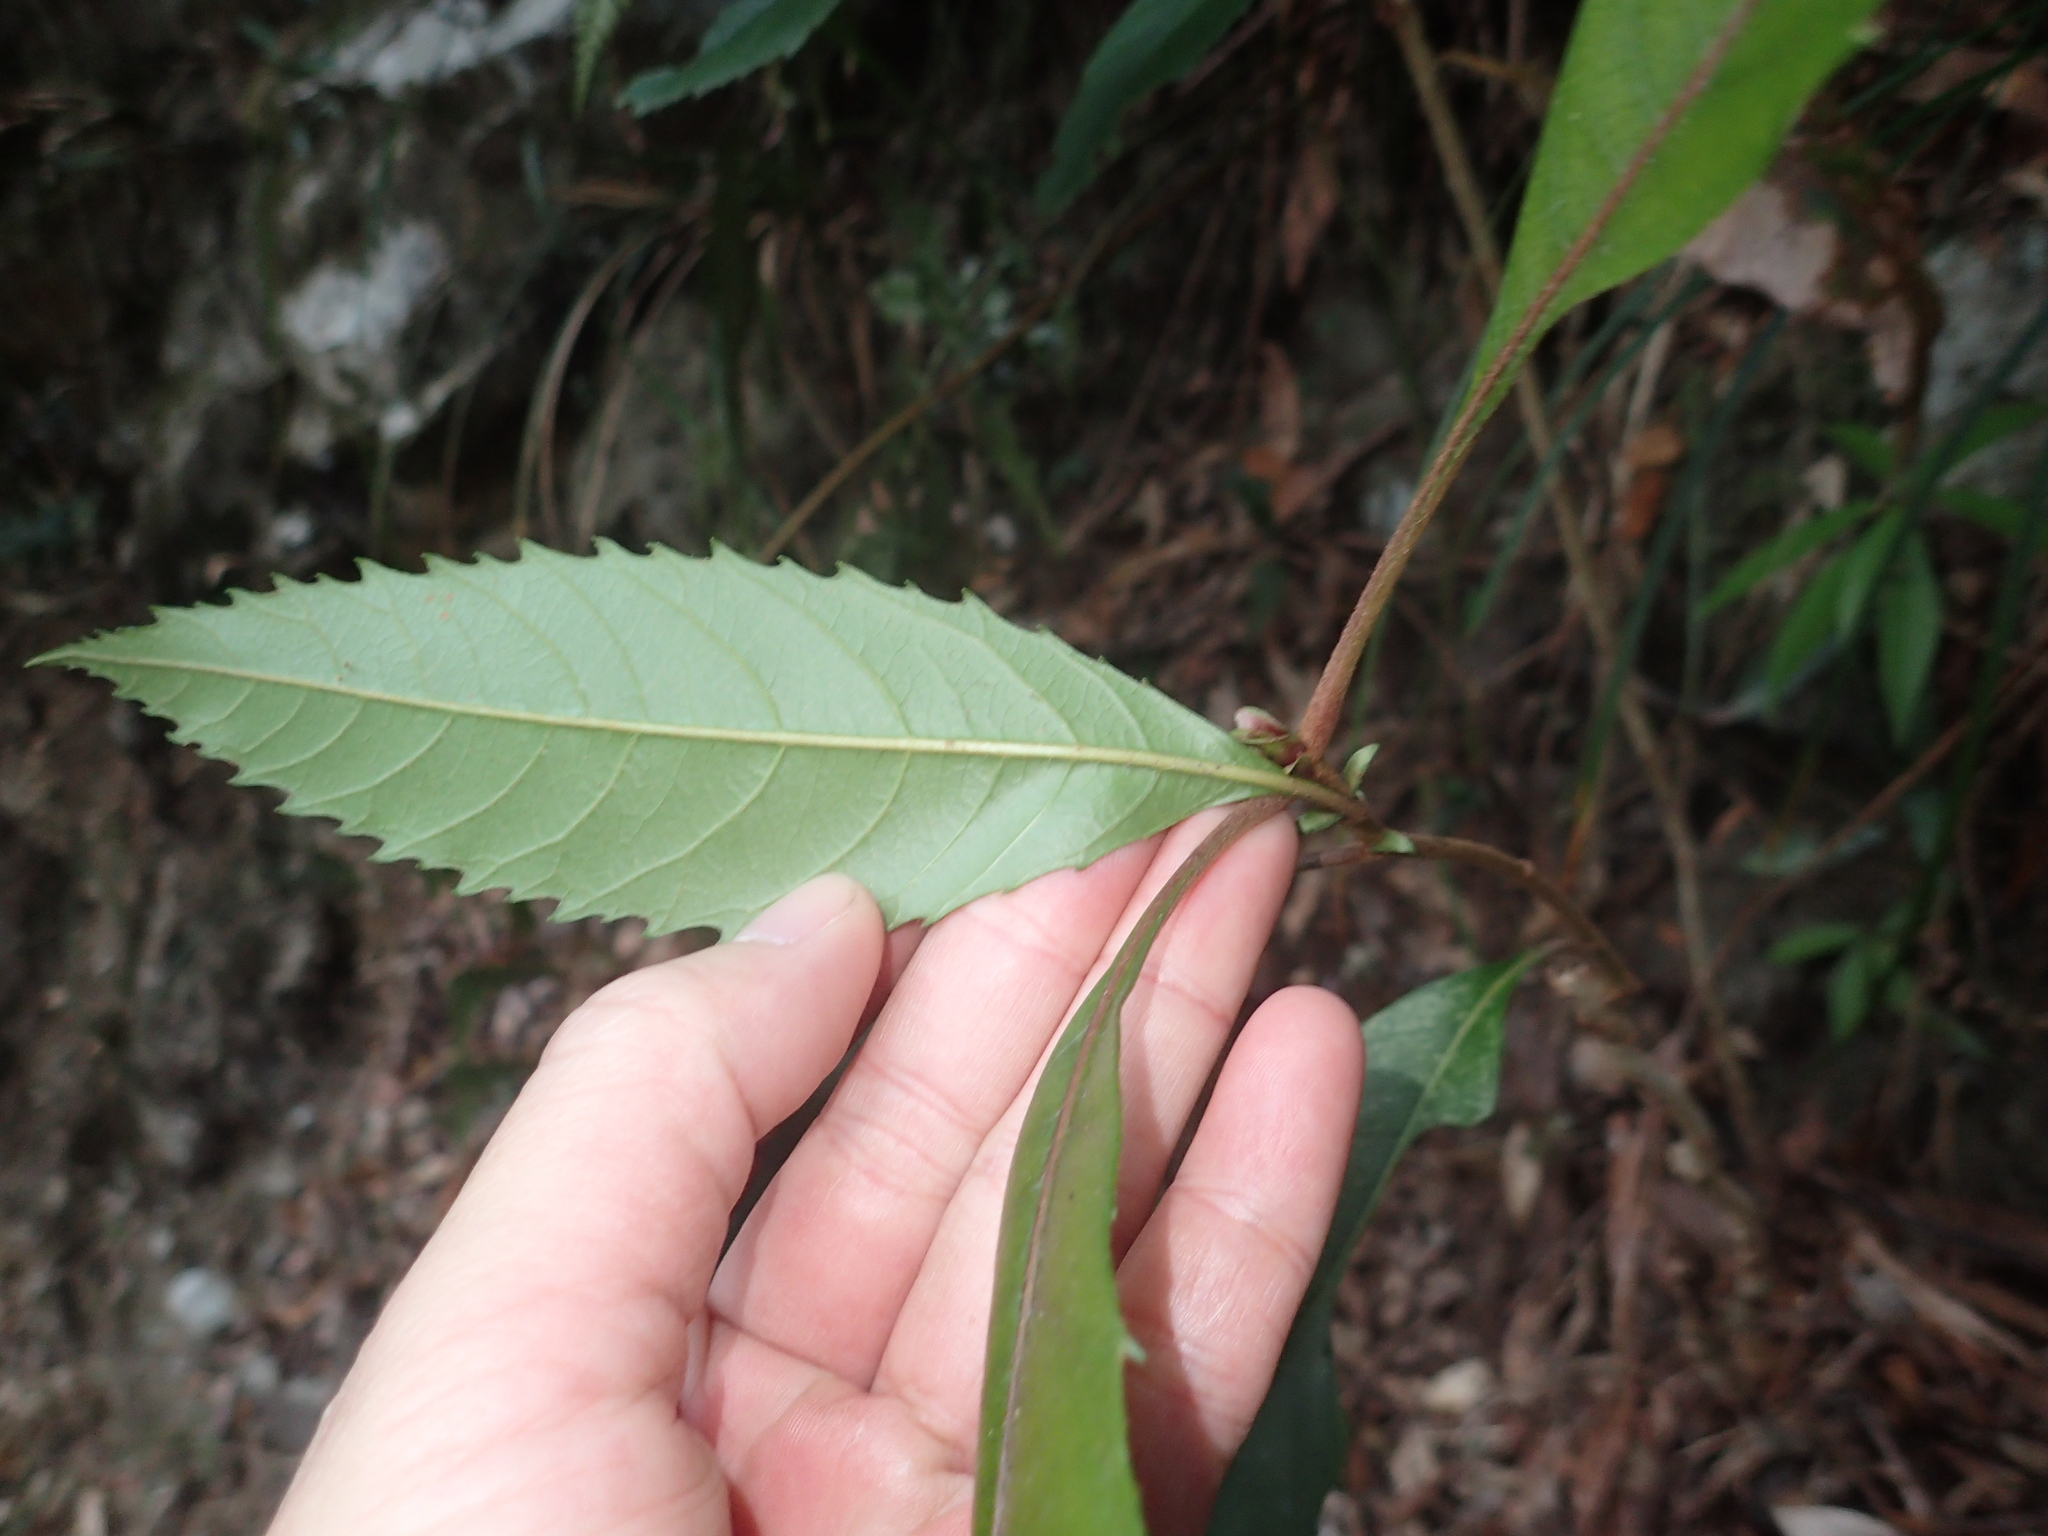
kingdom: Plantae
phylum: Tracheophyta
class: Magnoliopsida
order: Rosales
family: Rosaceae
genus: Rhaphiolepis
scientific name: Rhaphiolepis deflexa
